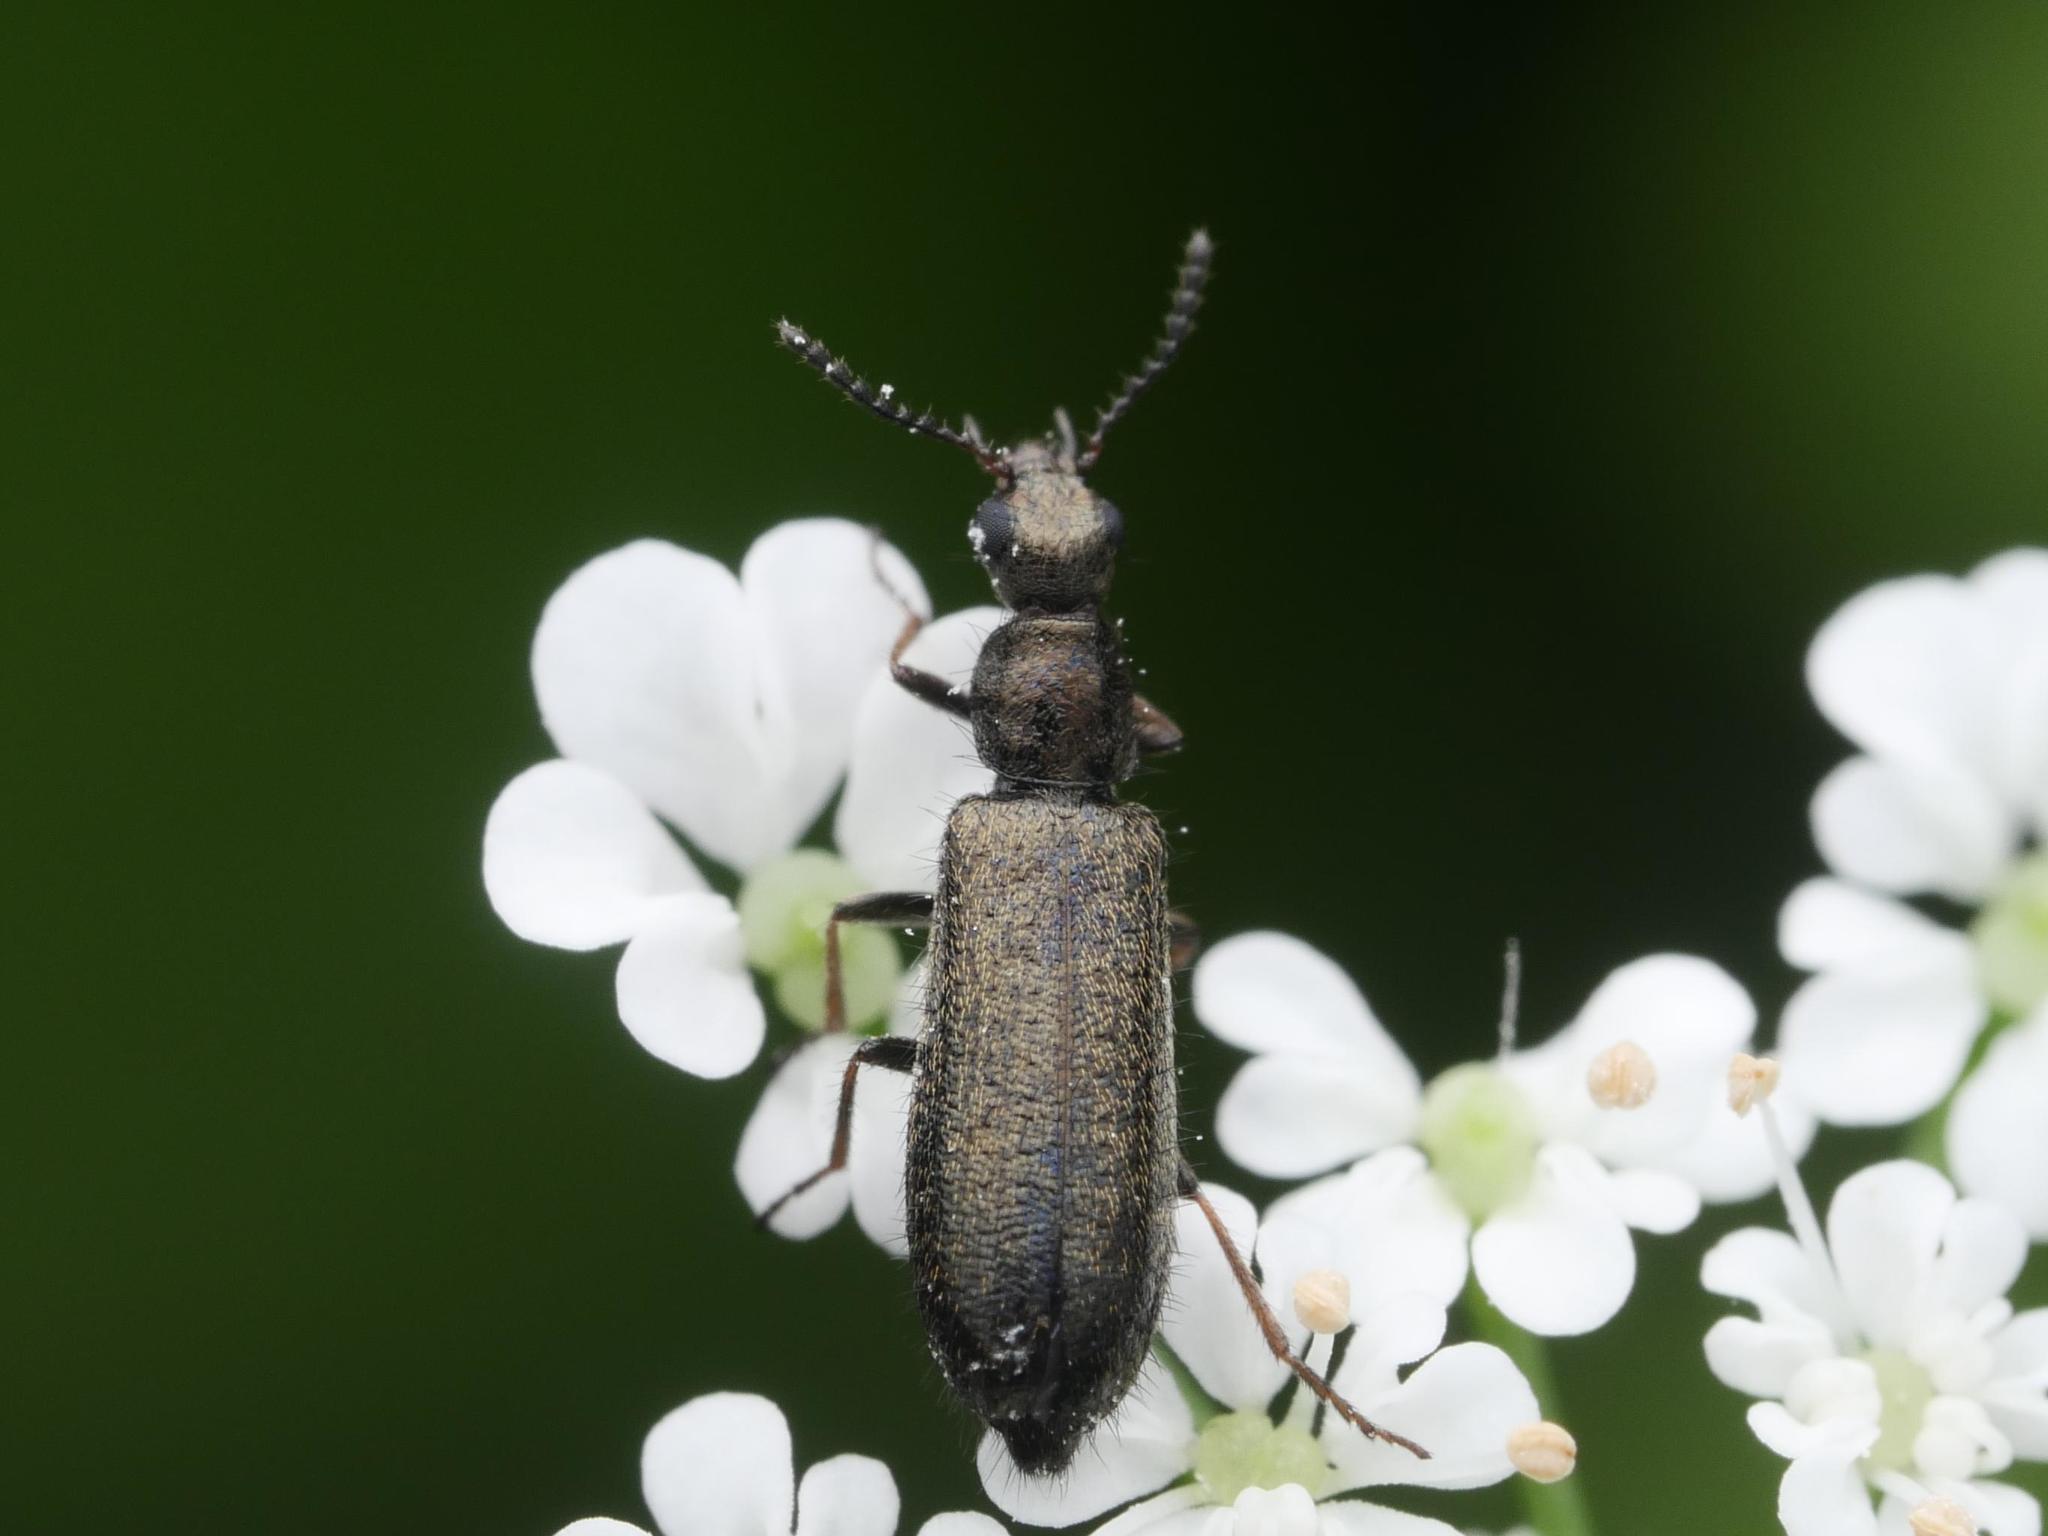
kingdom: Animalia
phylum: Arthropoda
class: Insecta
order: Coleoptera
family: Melyridae
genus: Dasytes
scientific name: Dasytes plumbeus
